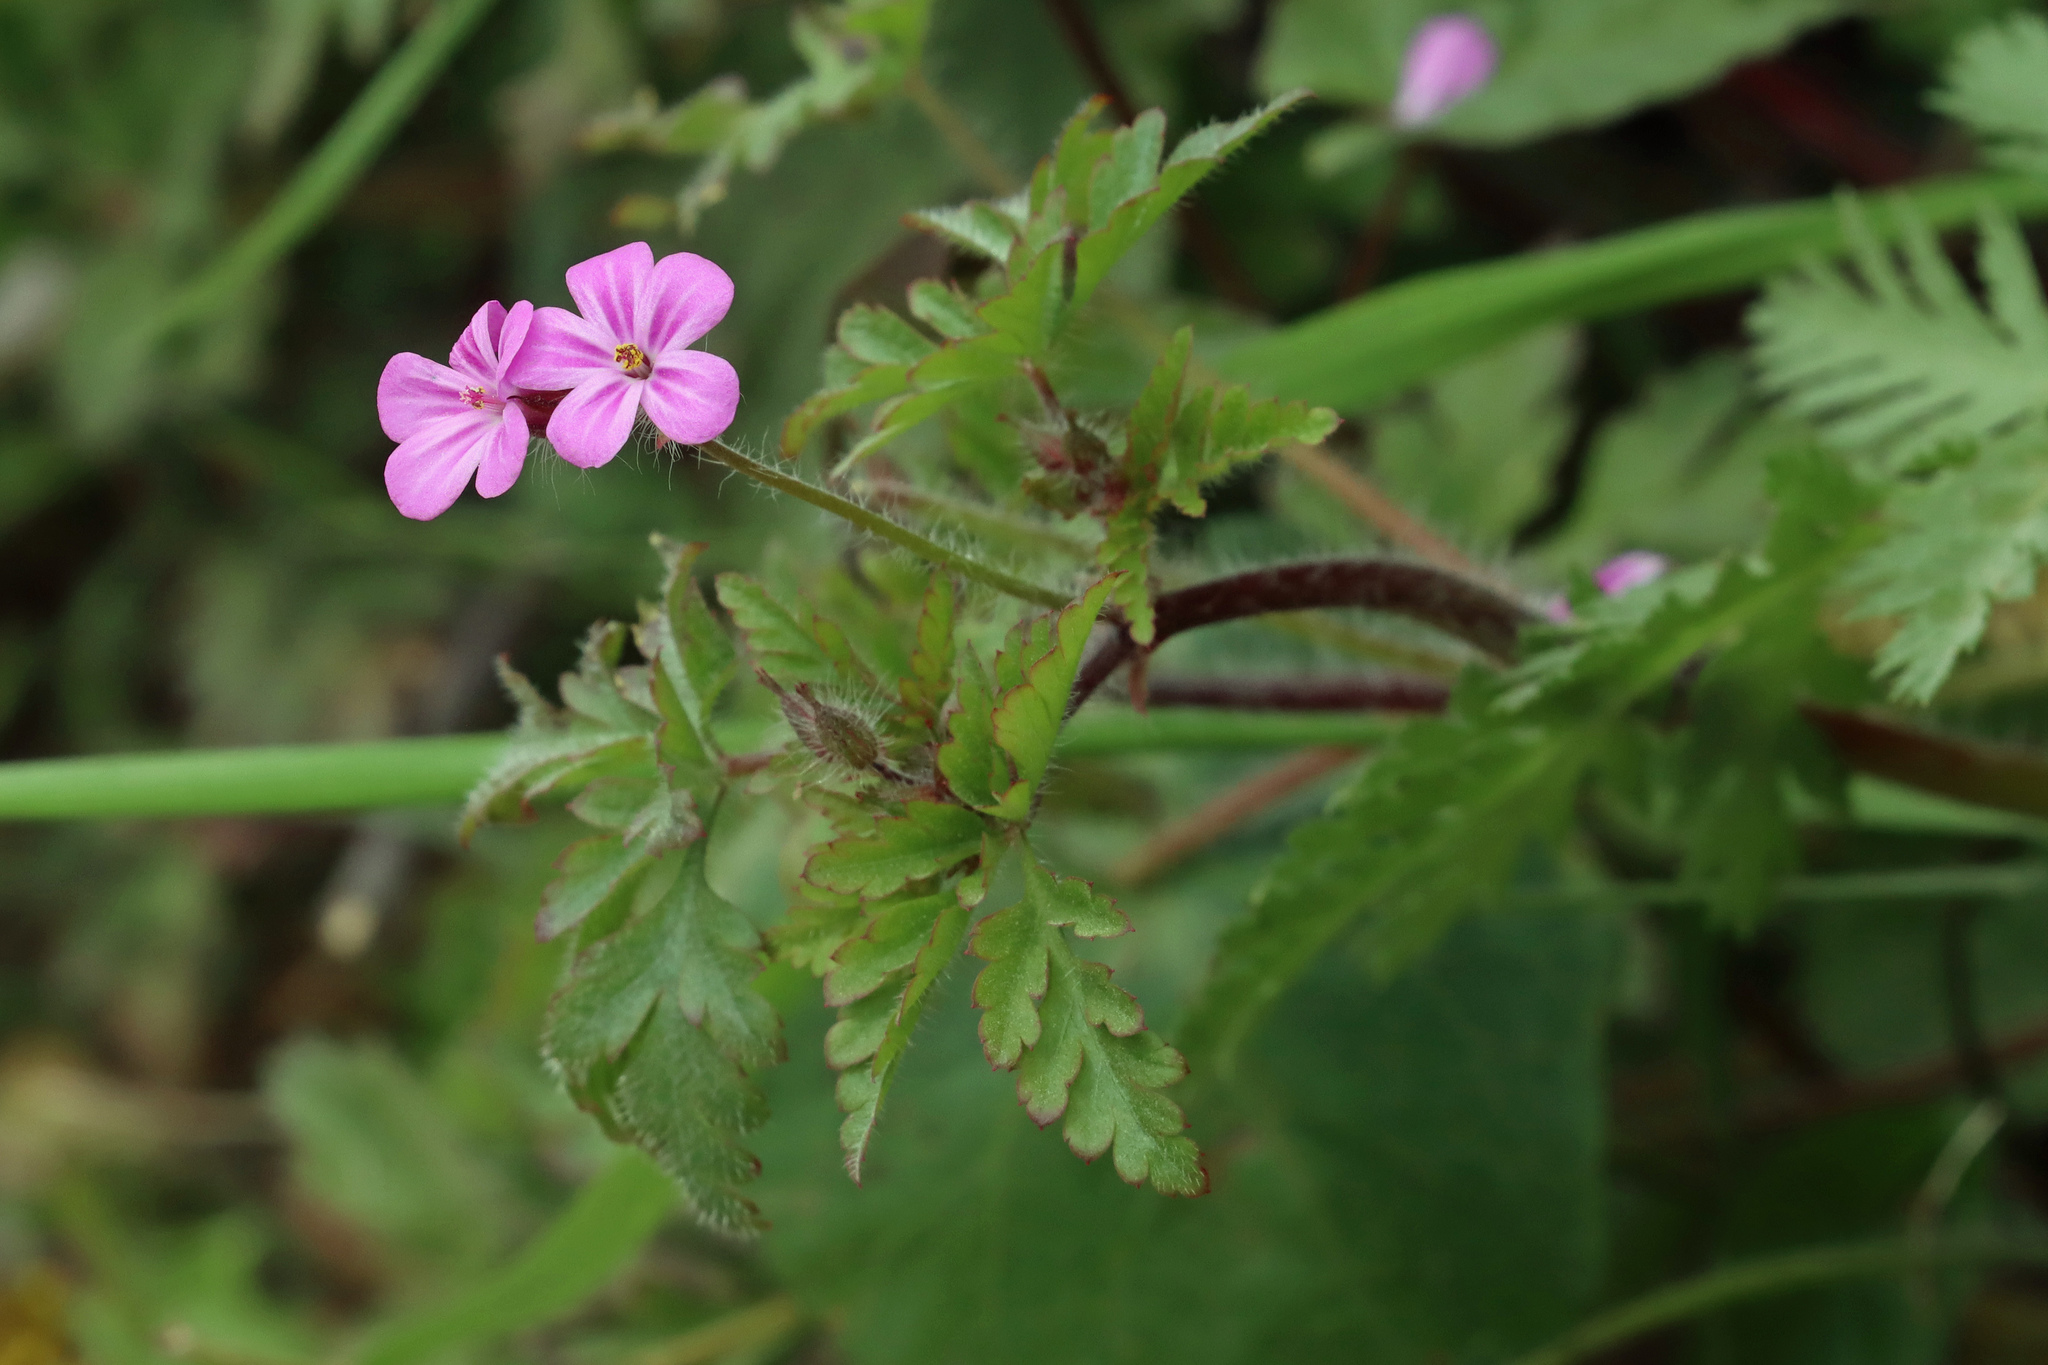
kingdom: Plantae
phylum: Tracheophyta
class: Magnoliopsida
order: Geraniales
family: Geraniaceae
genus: Geranium
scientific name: Geranium robertianum
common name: Herb-robert
